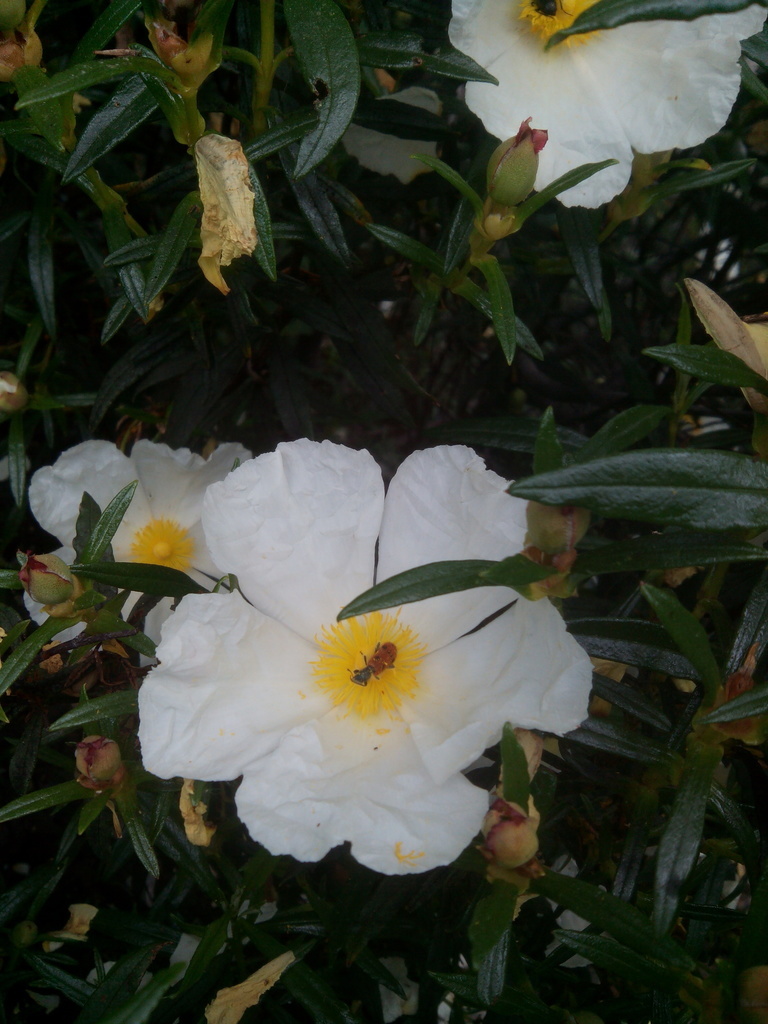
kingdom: Plantae
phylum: Tracheophyta
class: Magnoliopsida
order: Malvales
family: Cistaceae
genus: Cistus
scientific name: Cistus ladanifer
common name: Common gum cistus
